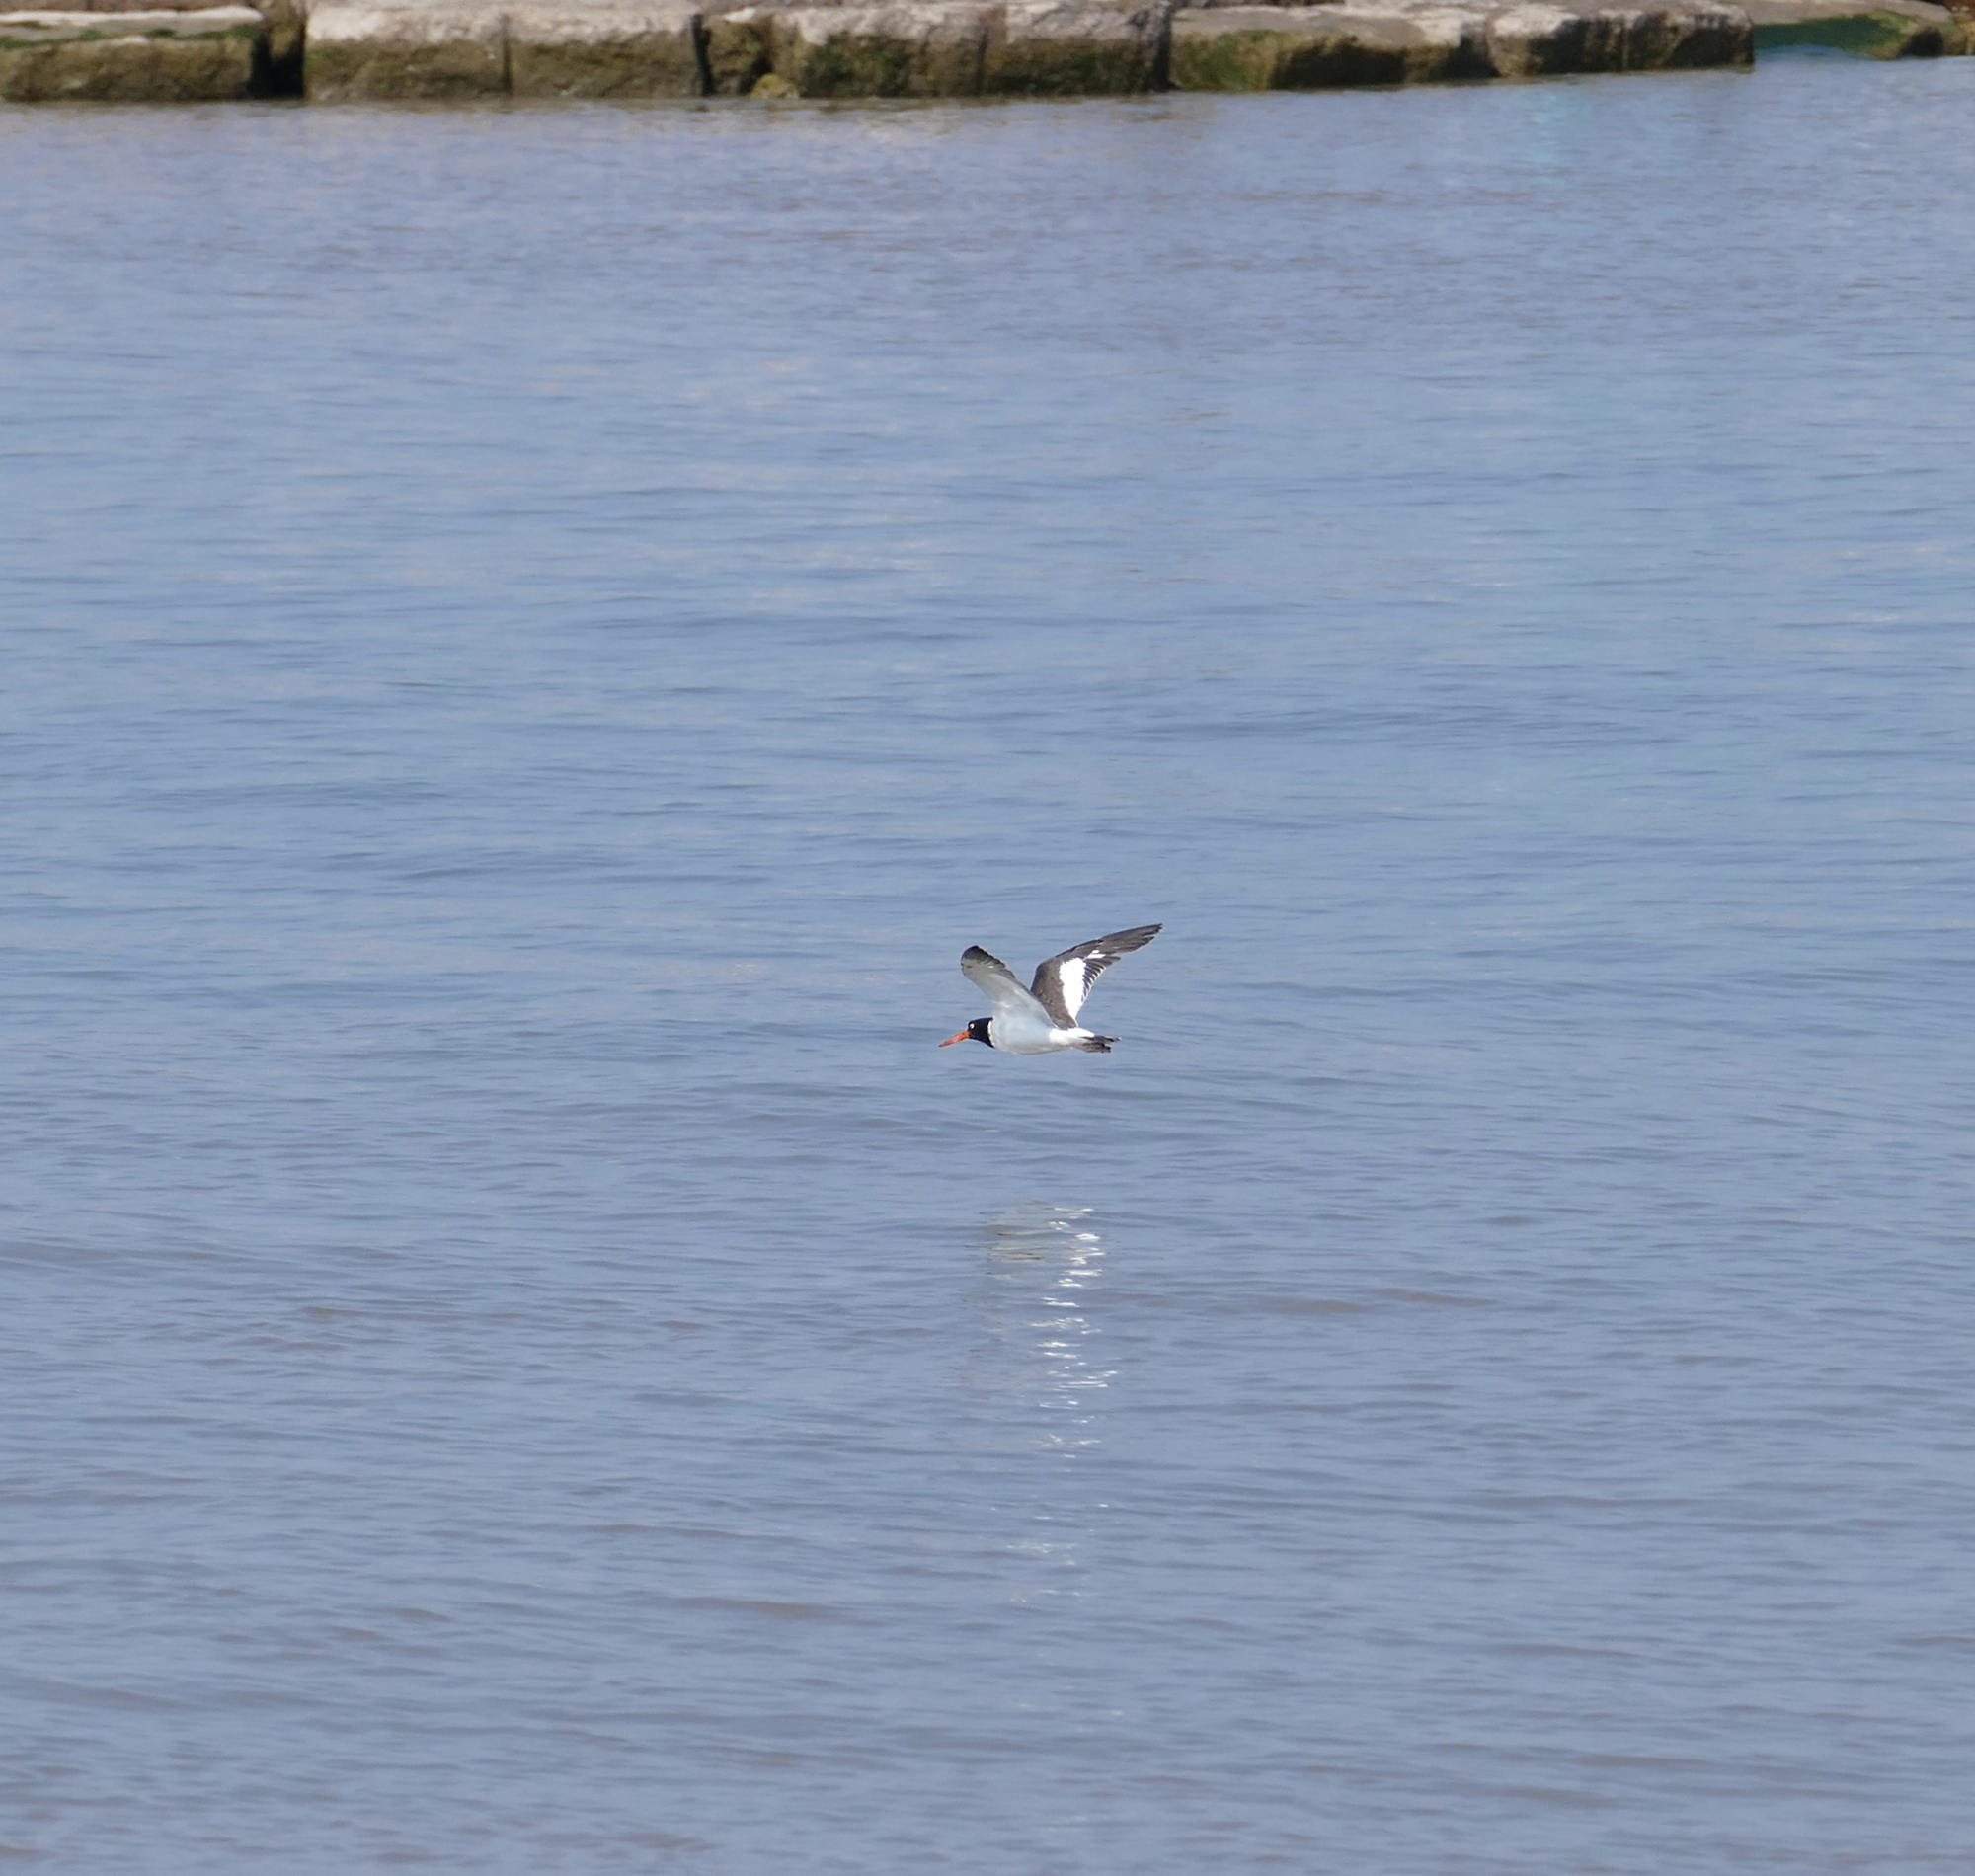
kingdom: Animalia
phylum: Chordata
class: Aves
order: Charadriiformes
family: Haematopodidae
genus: Haematopus
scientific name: Haematopus palliatus
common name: American oystercatcher
